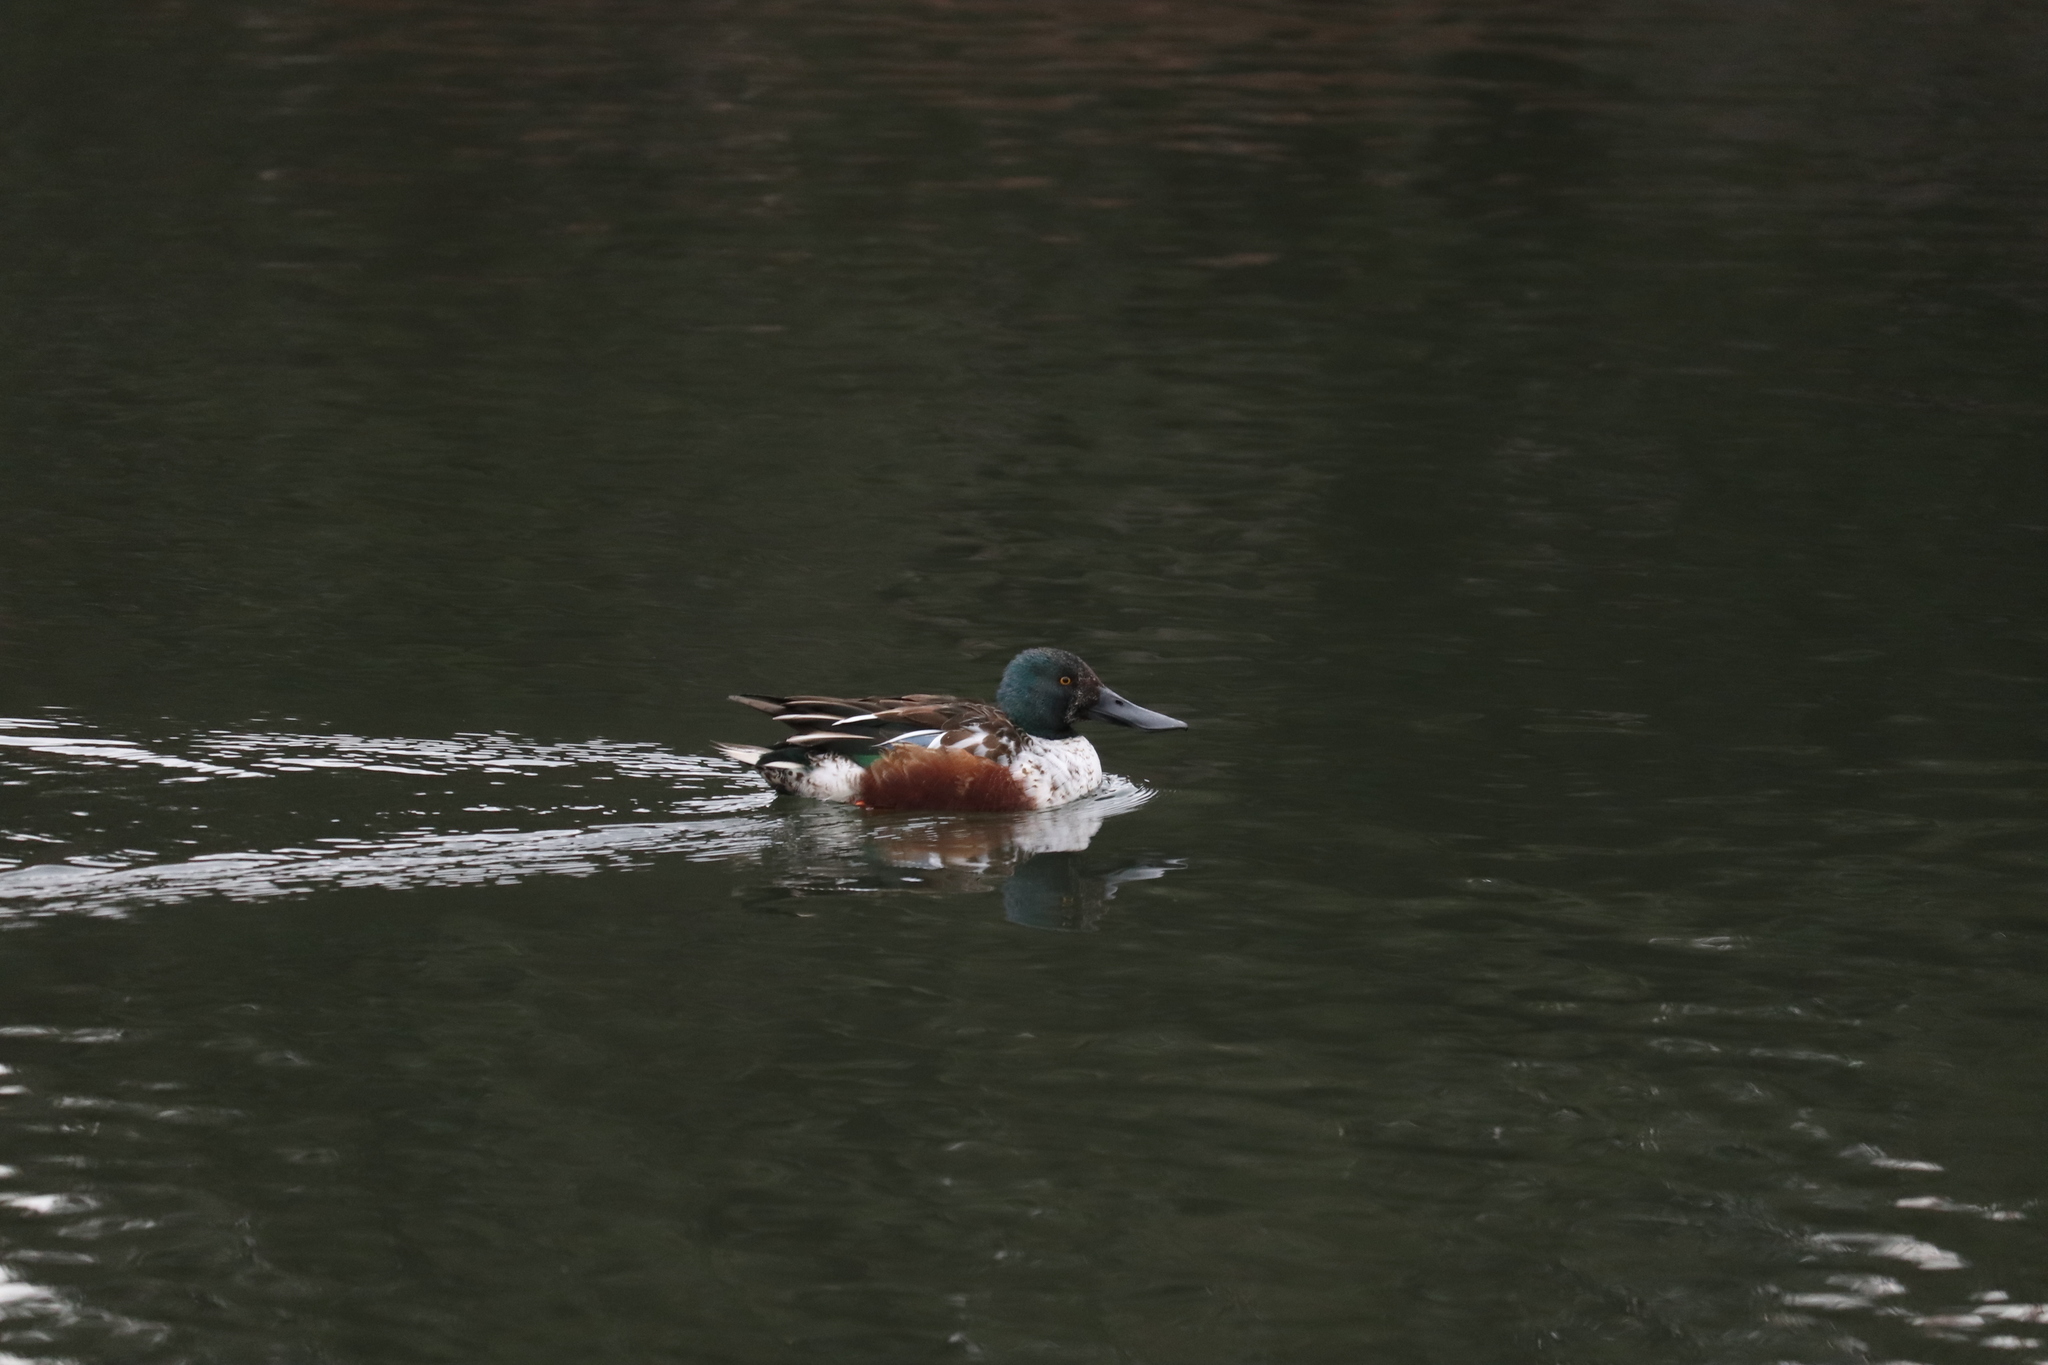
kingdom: Animalia
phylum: Chordata
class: Aves
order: Anseriformes
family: Anatidae
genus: Spatula
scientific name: Spatula clypeata
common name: Northern shoveler
